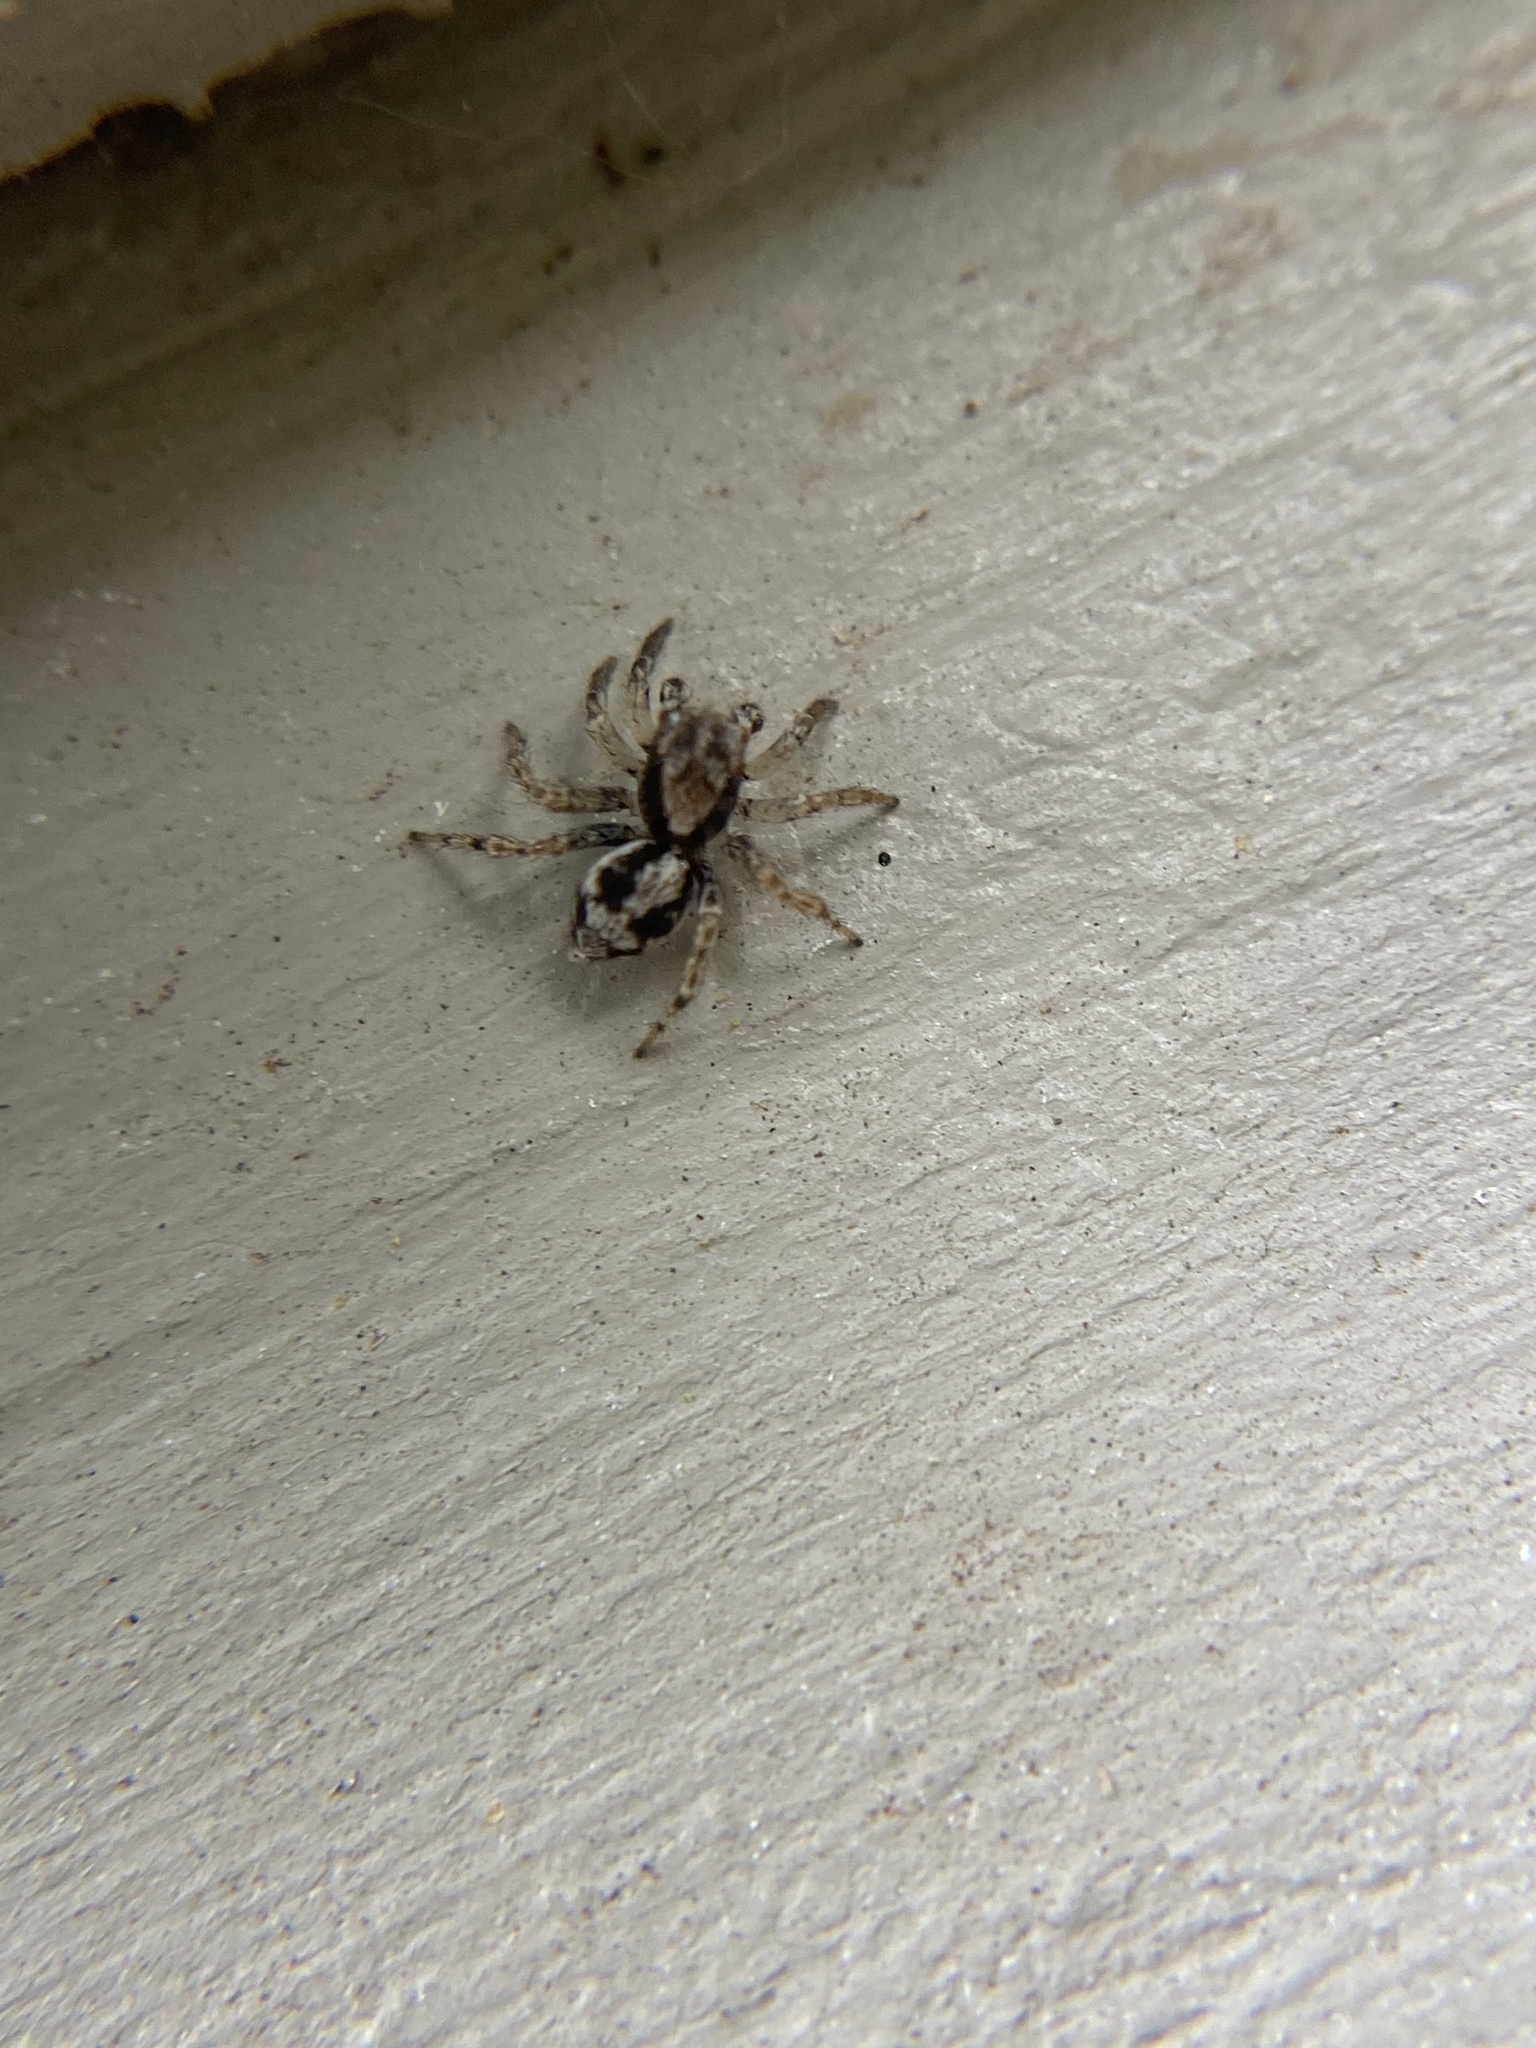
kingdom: Animalia
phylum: Arthropoda
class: Arachnida
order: Araneae
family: Salticidae
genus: Naphrys
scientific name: Naphrys pulex
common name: Flea jumping spider
